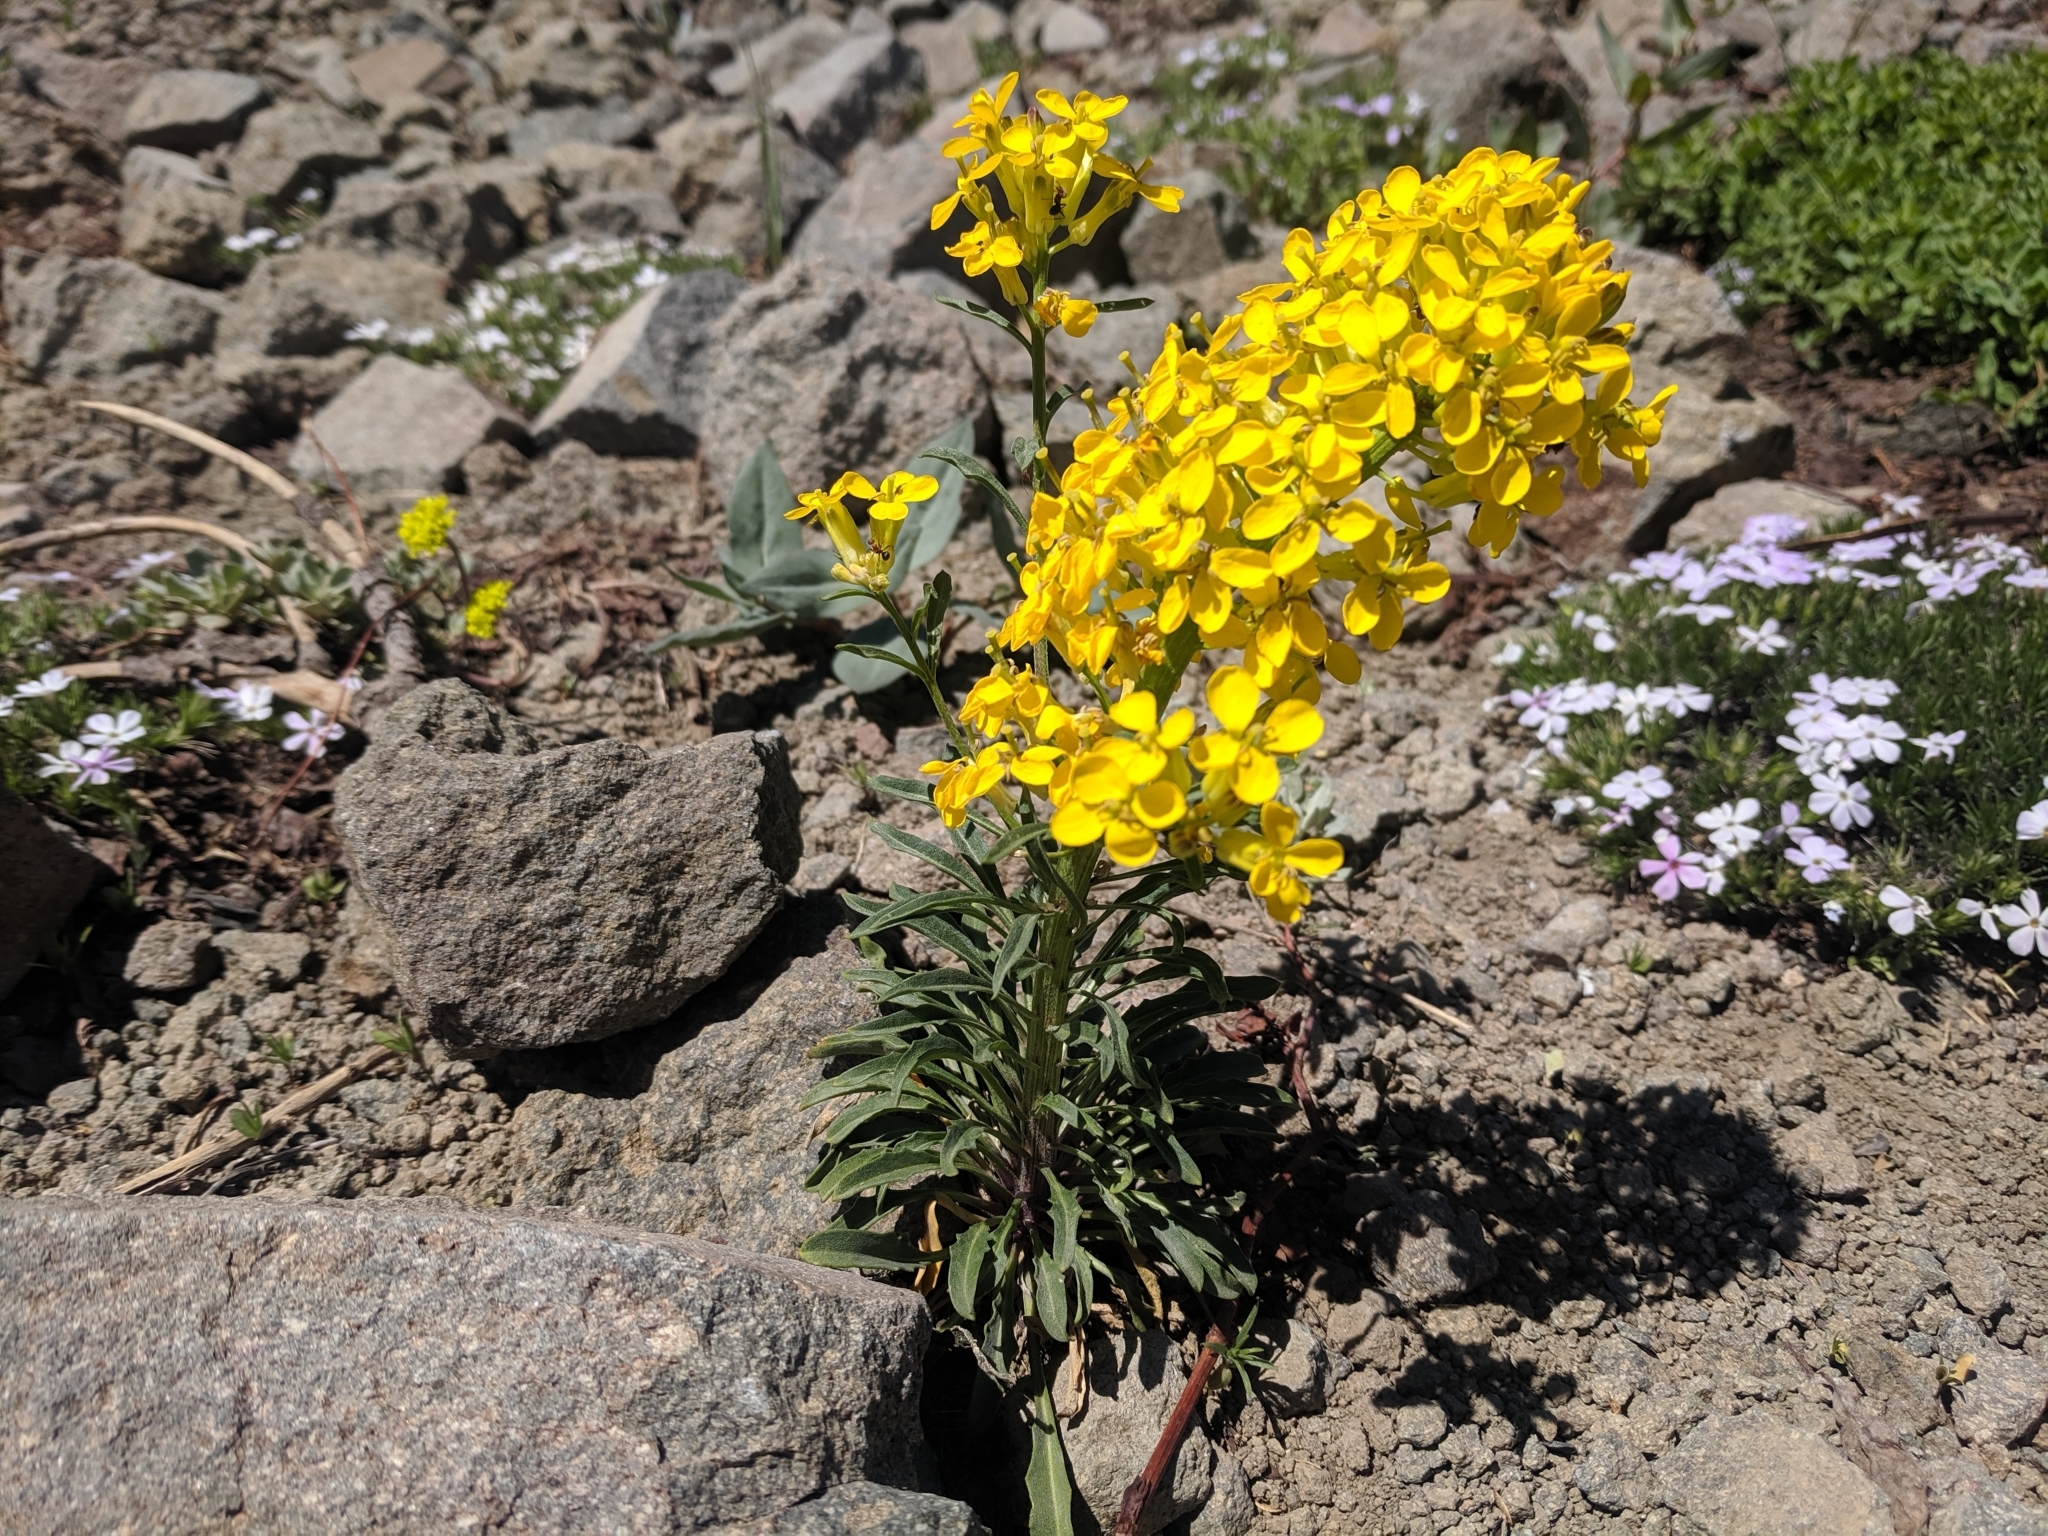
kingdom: Plantae
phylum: Tracheophyta
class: Magnoliopsida
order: Brassicales
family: Brassicaceae
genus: Erysimum
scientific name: Erysimum capitatum
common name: Western wallflower
